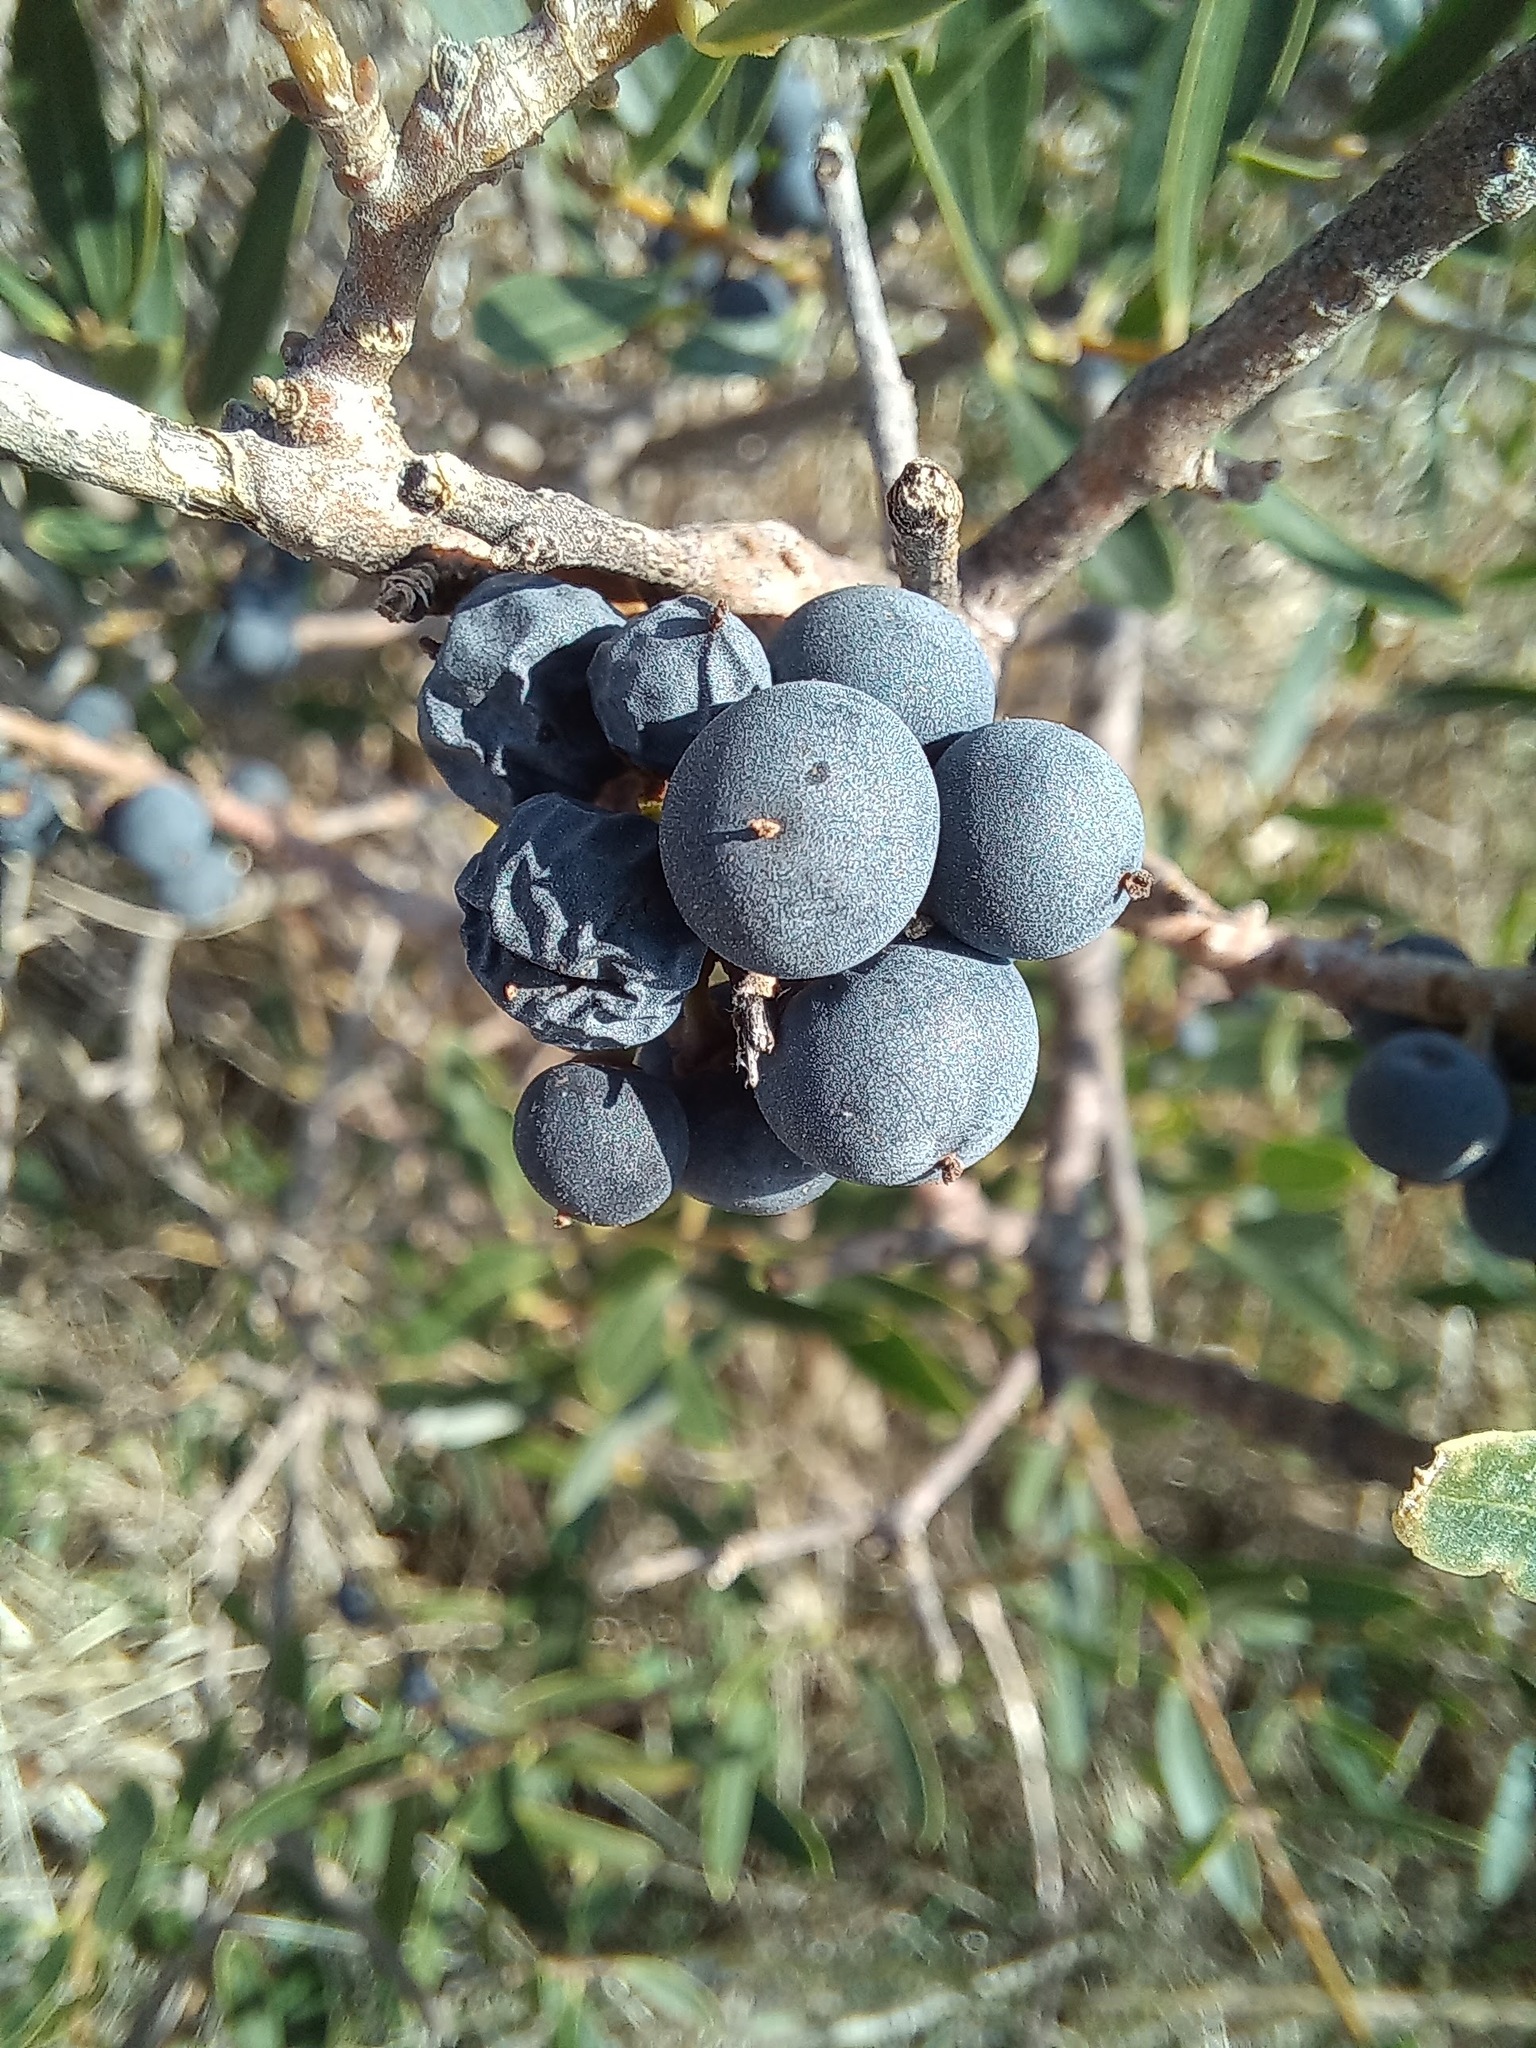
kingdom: Plantae
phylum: Tracheophyta
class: Magnoliopsida
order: Lamiales
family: Oleaceae
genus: Phillyrea
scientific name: Phillyrea angustifolia
